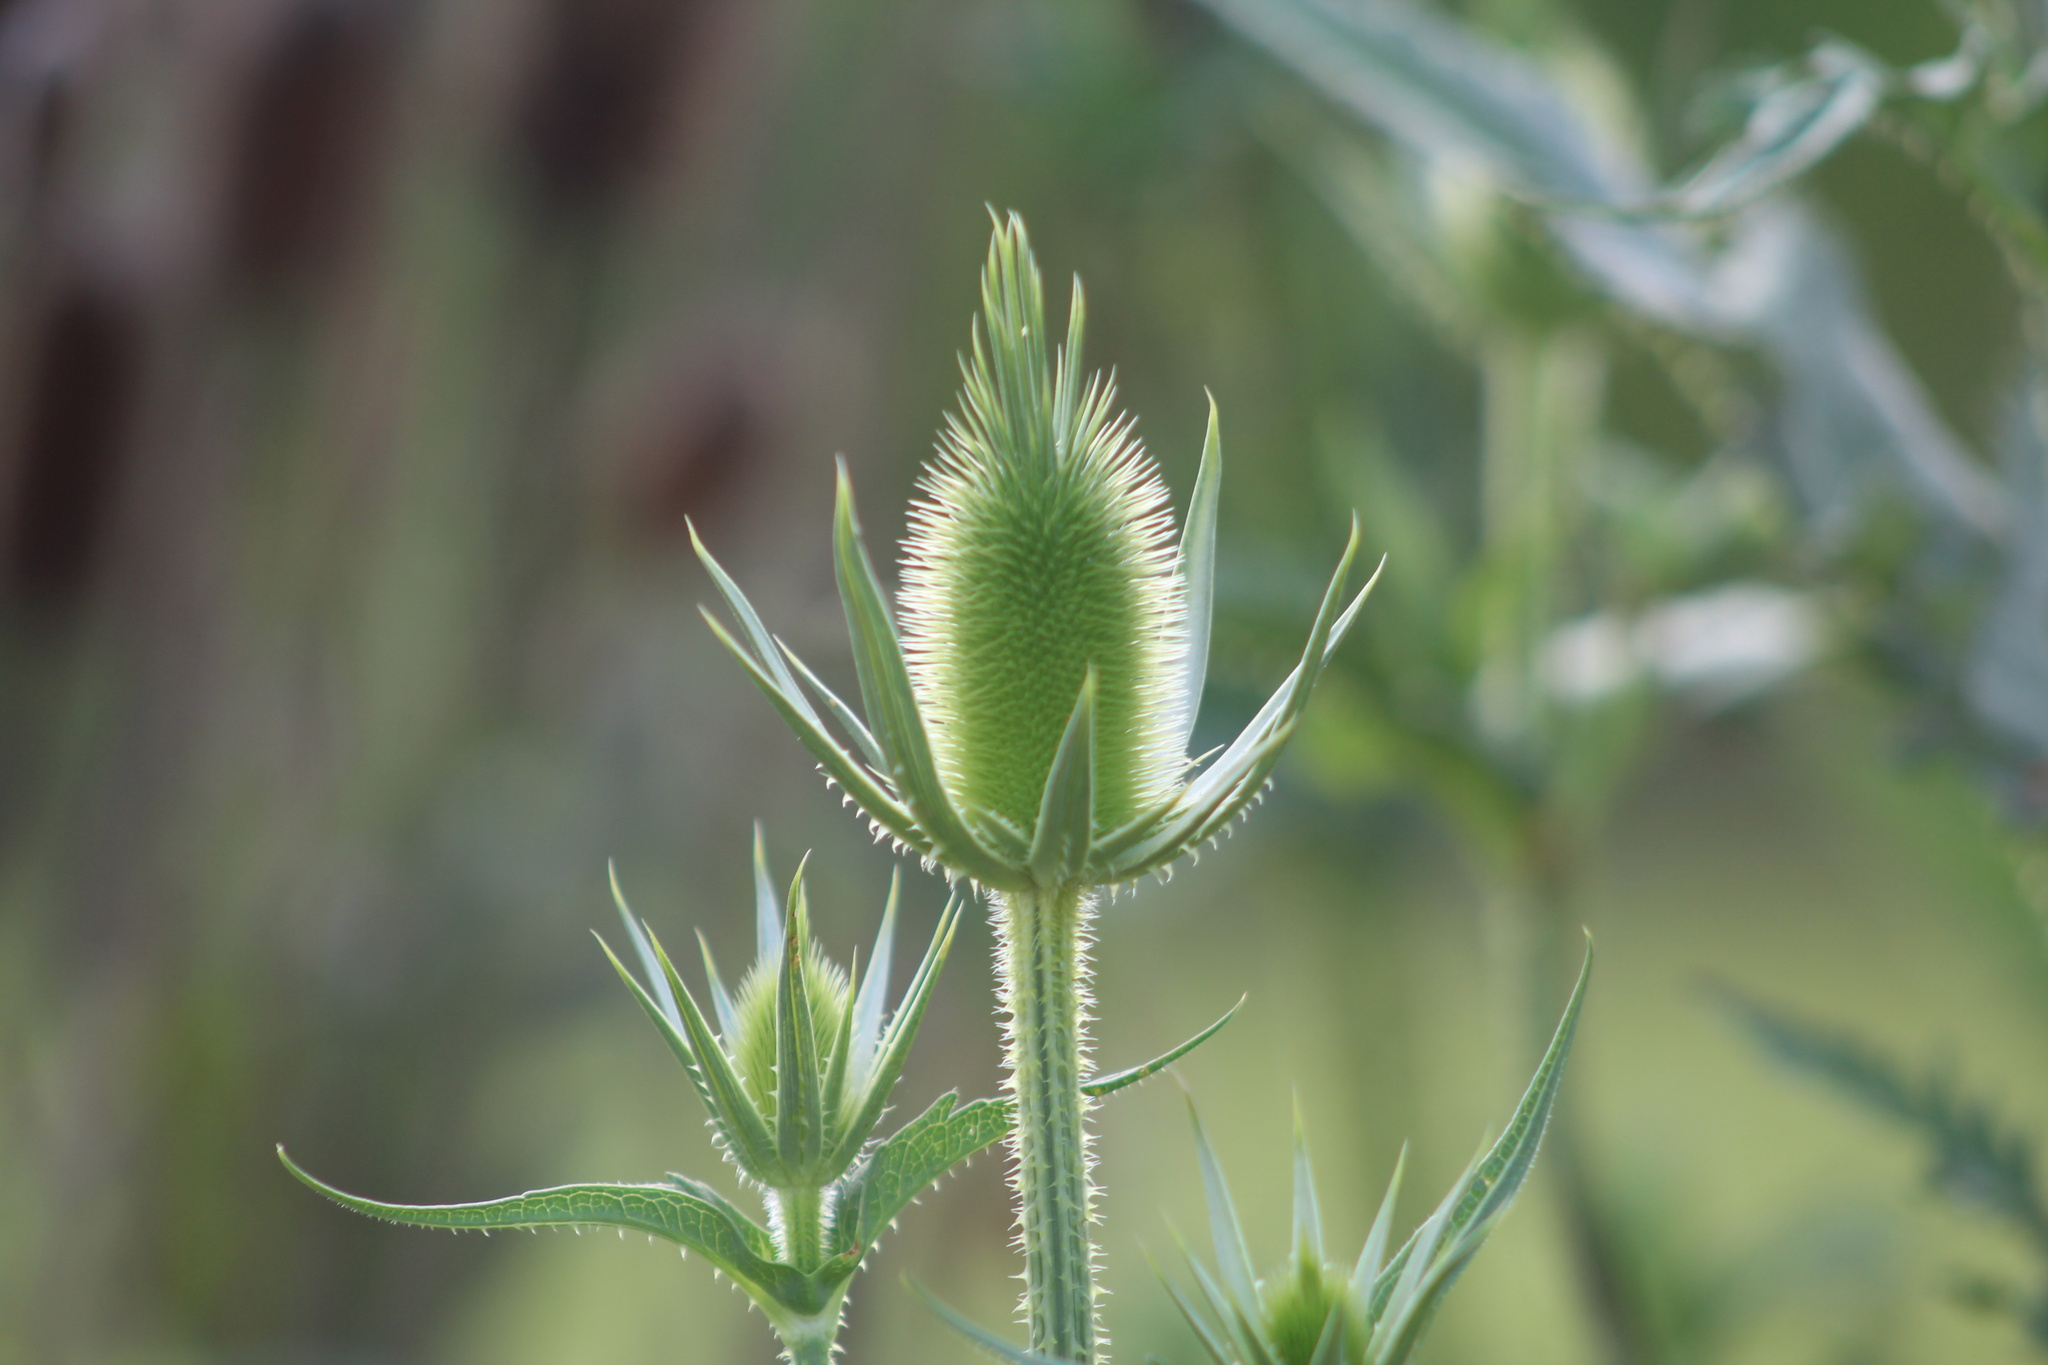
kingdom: Plantae
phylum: Tracheophyta
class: Magnoliopsida
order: Dipsacales
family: Caprifoliaceae
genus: Dipsacus
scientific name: Dipsacus laciniatus
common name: Cut-leaved teasel
